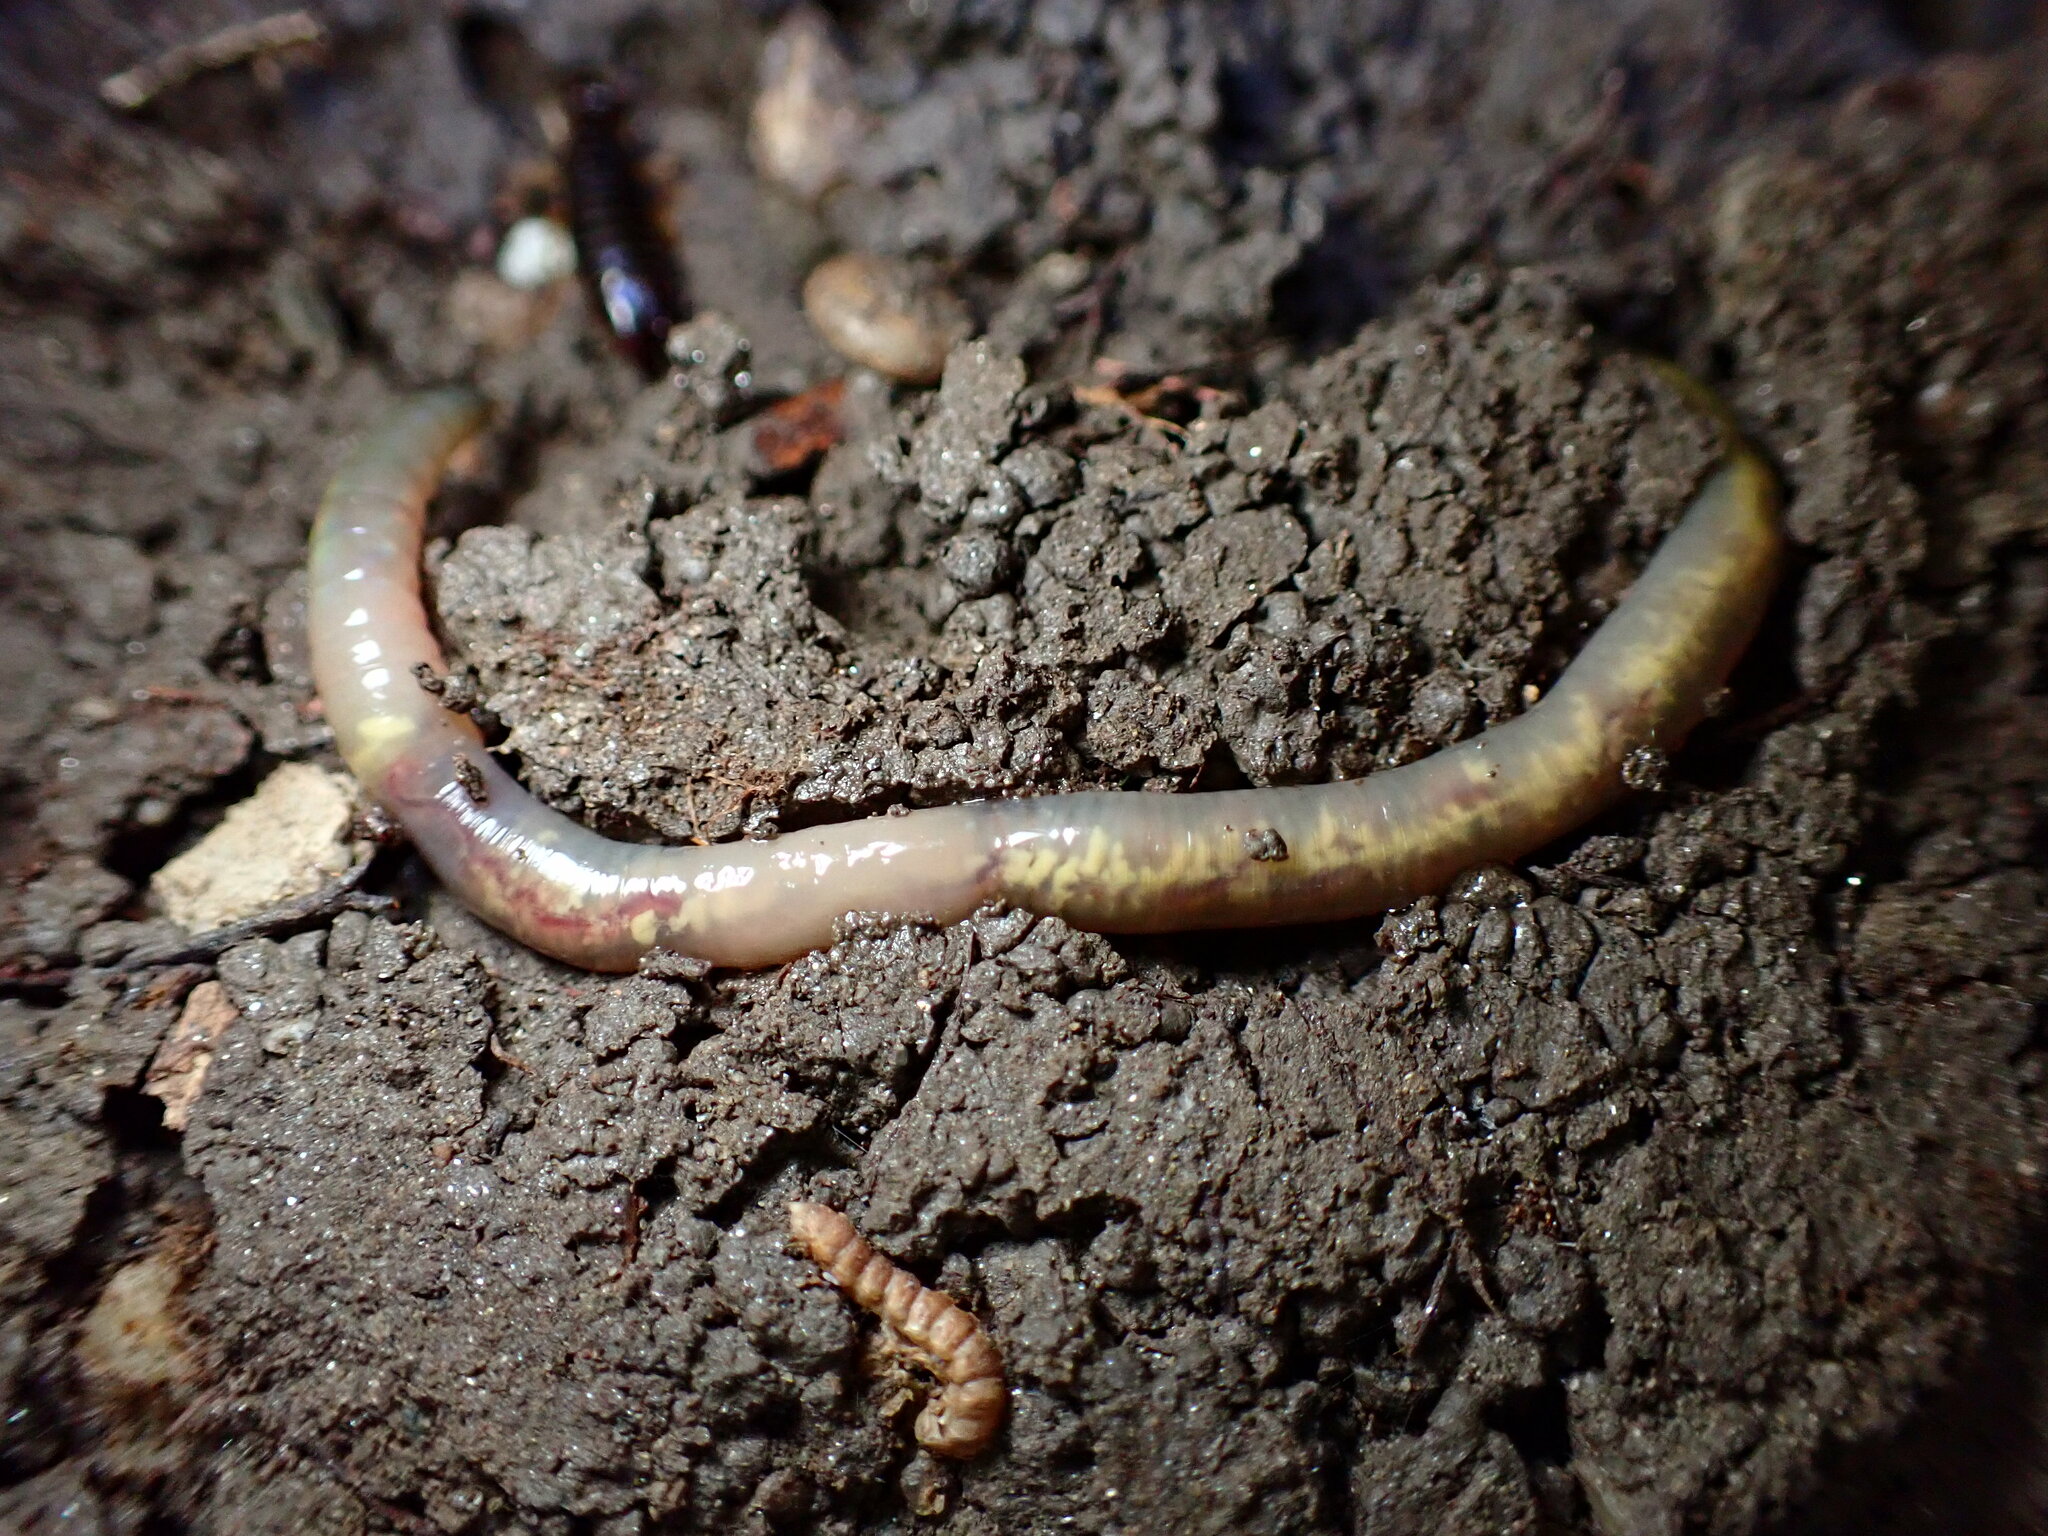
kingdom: Animalia
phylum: Annelida
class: Clitellata
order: Crassiclitellata
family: Lumbricidae
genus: Lumbricus
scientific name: Lumbricus terrestris
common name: Common earthworm
